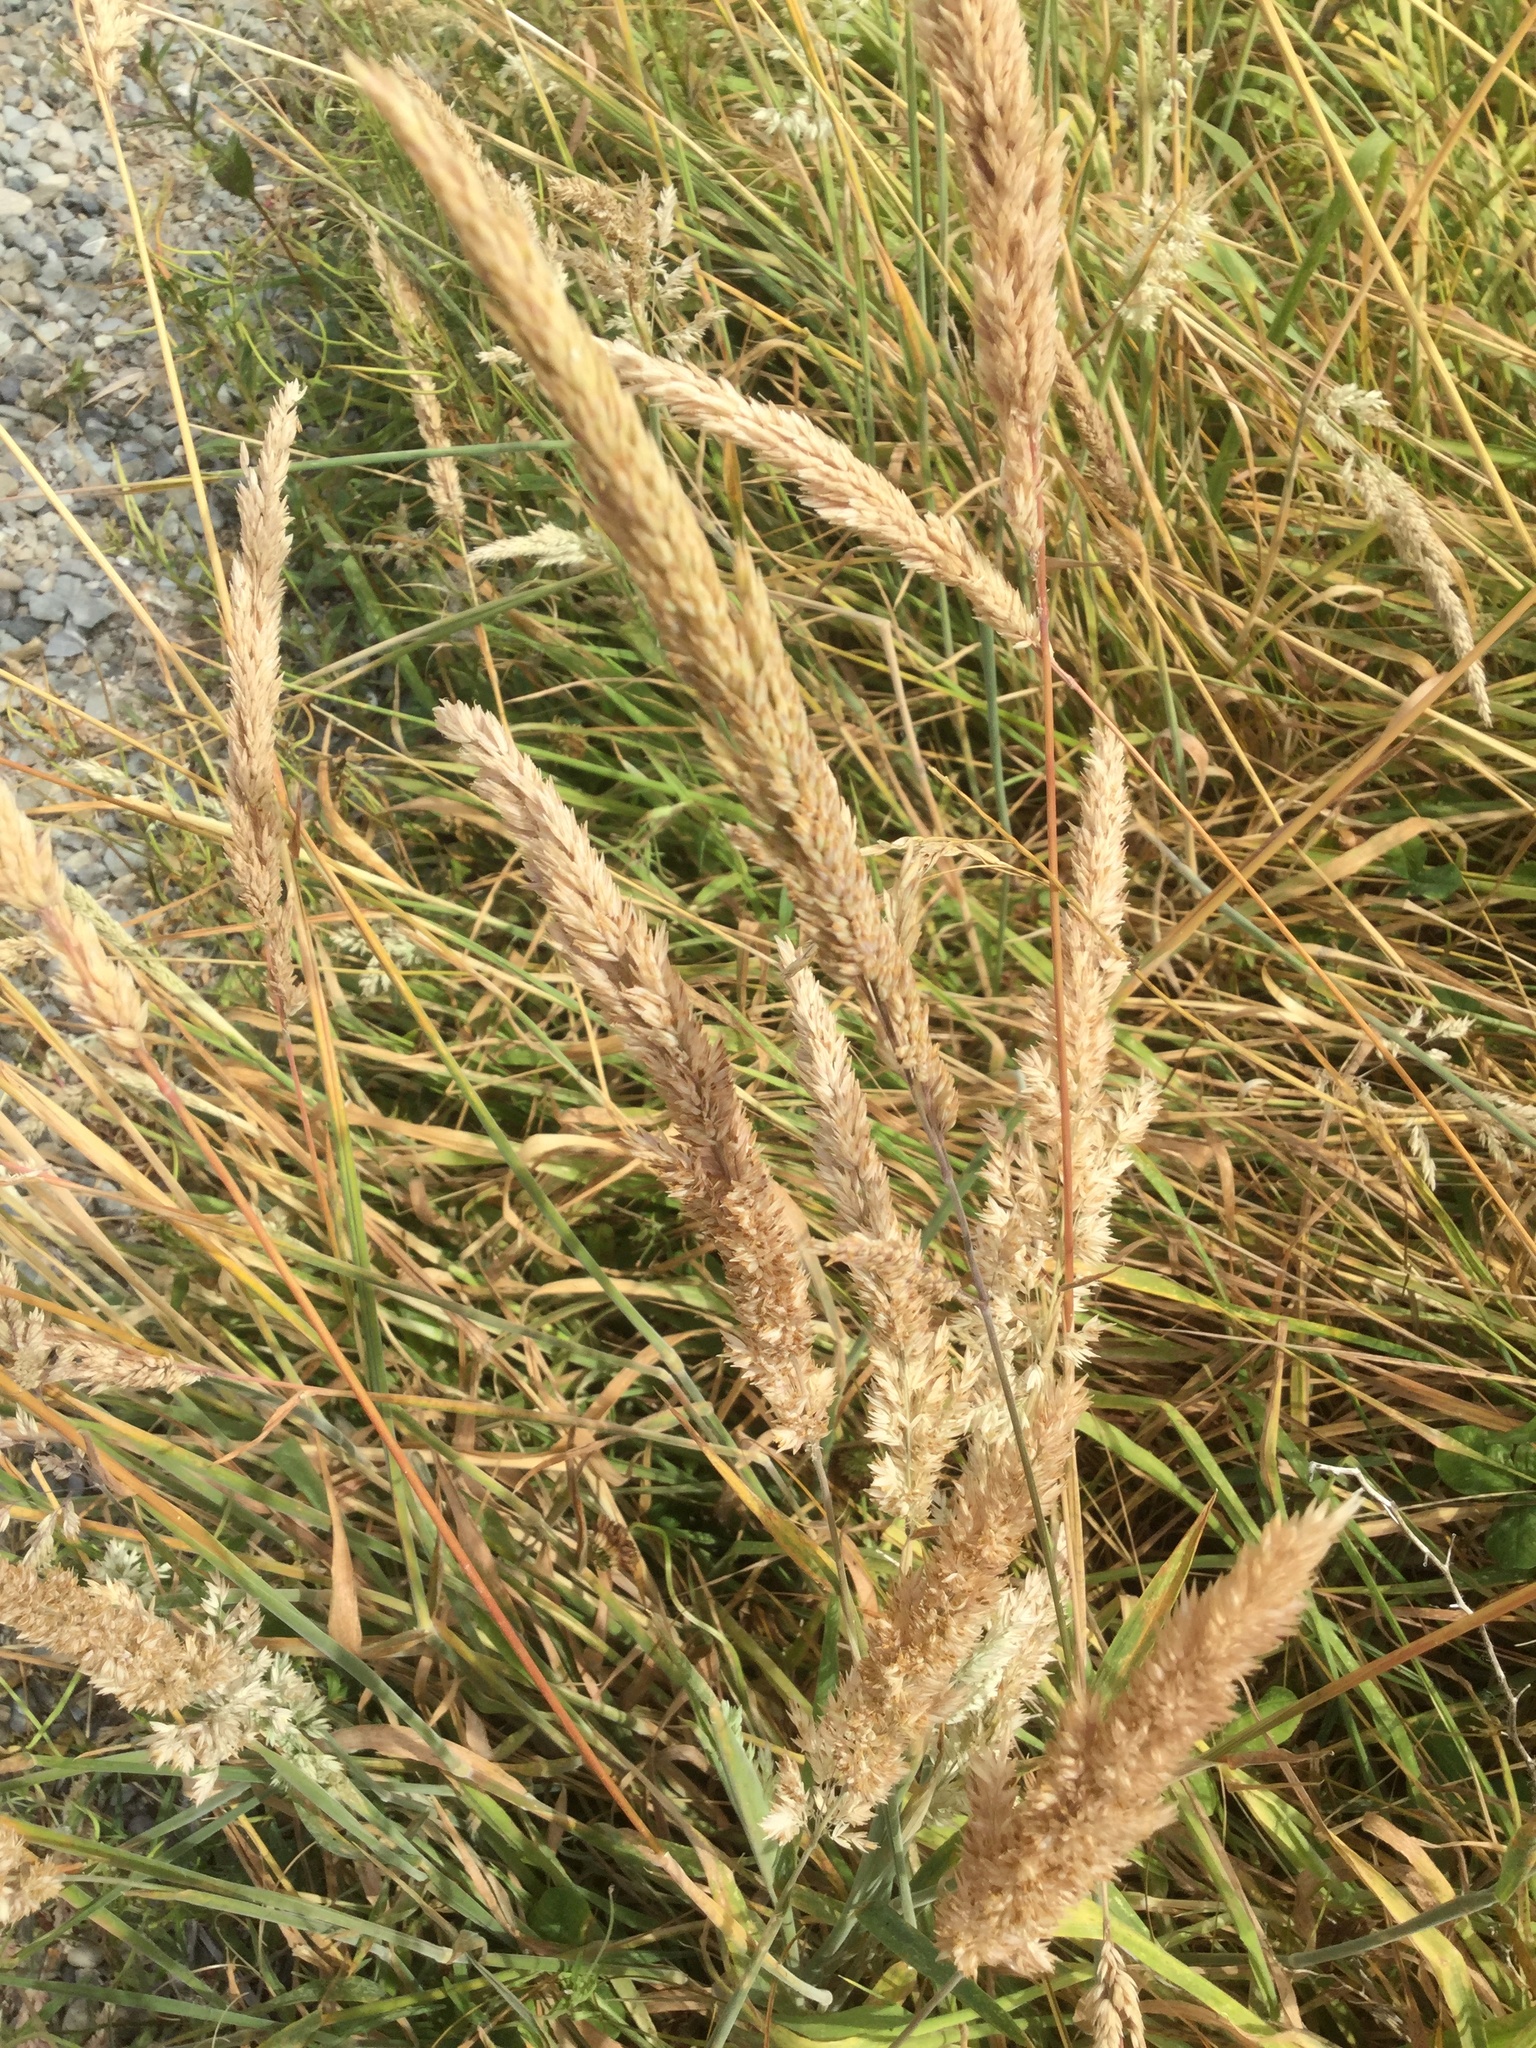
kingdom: Plantae
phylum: Tracheophyta
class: Liliopsida
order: Poales
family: Poaceae
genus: Holcus
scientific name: Holcus lanatus
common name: Yorkshire-fog
